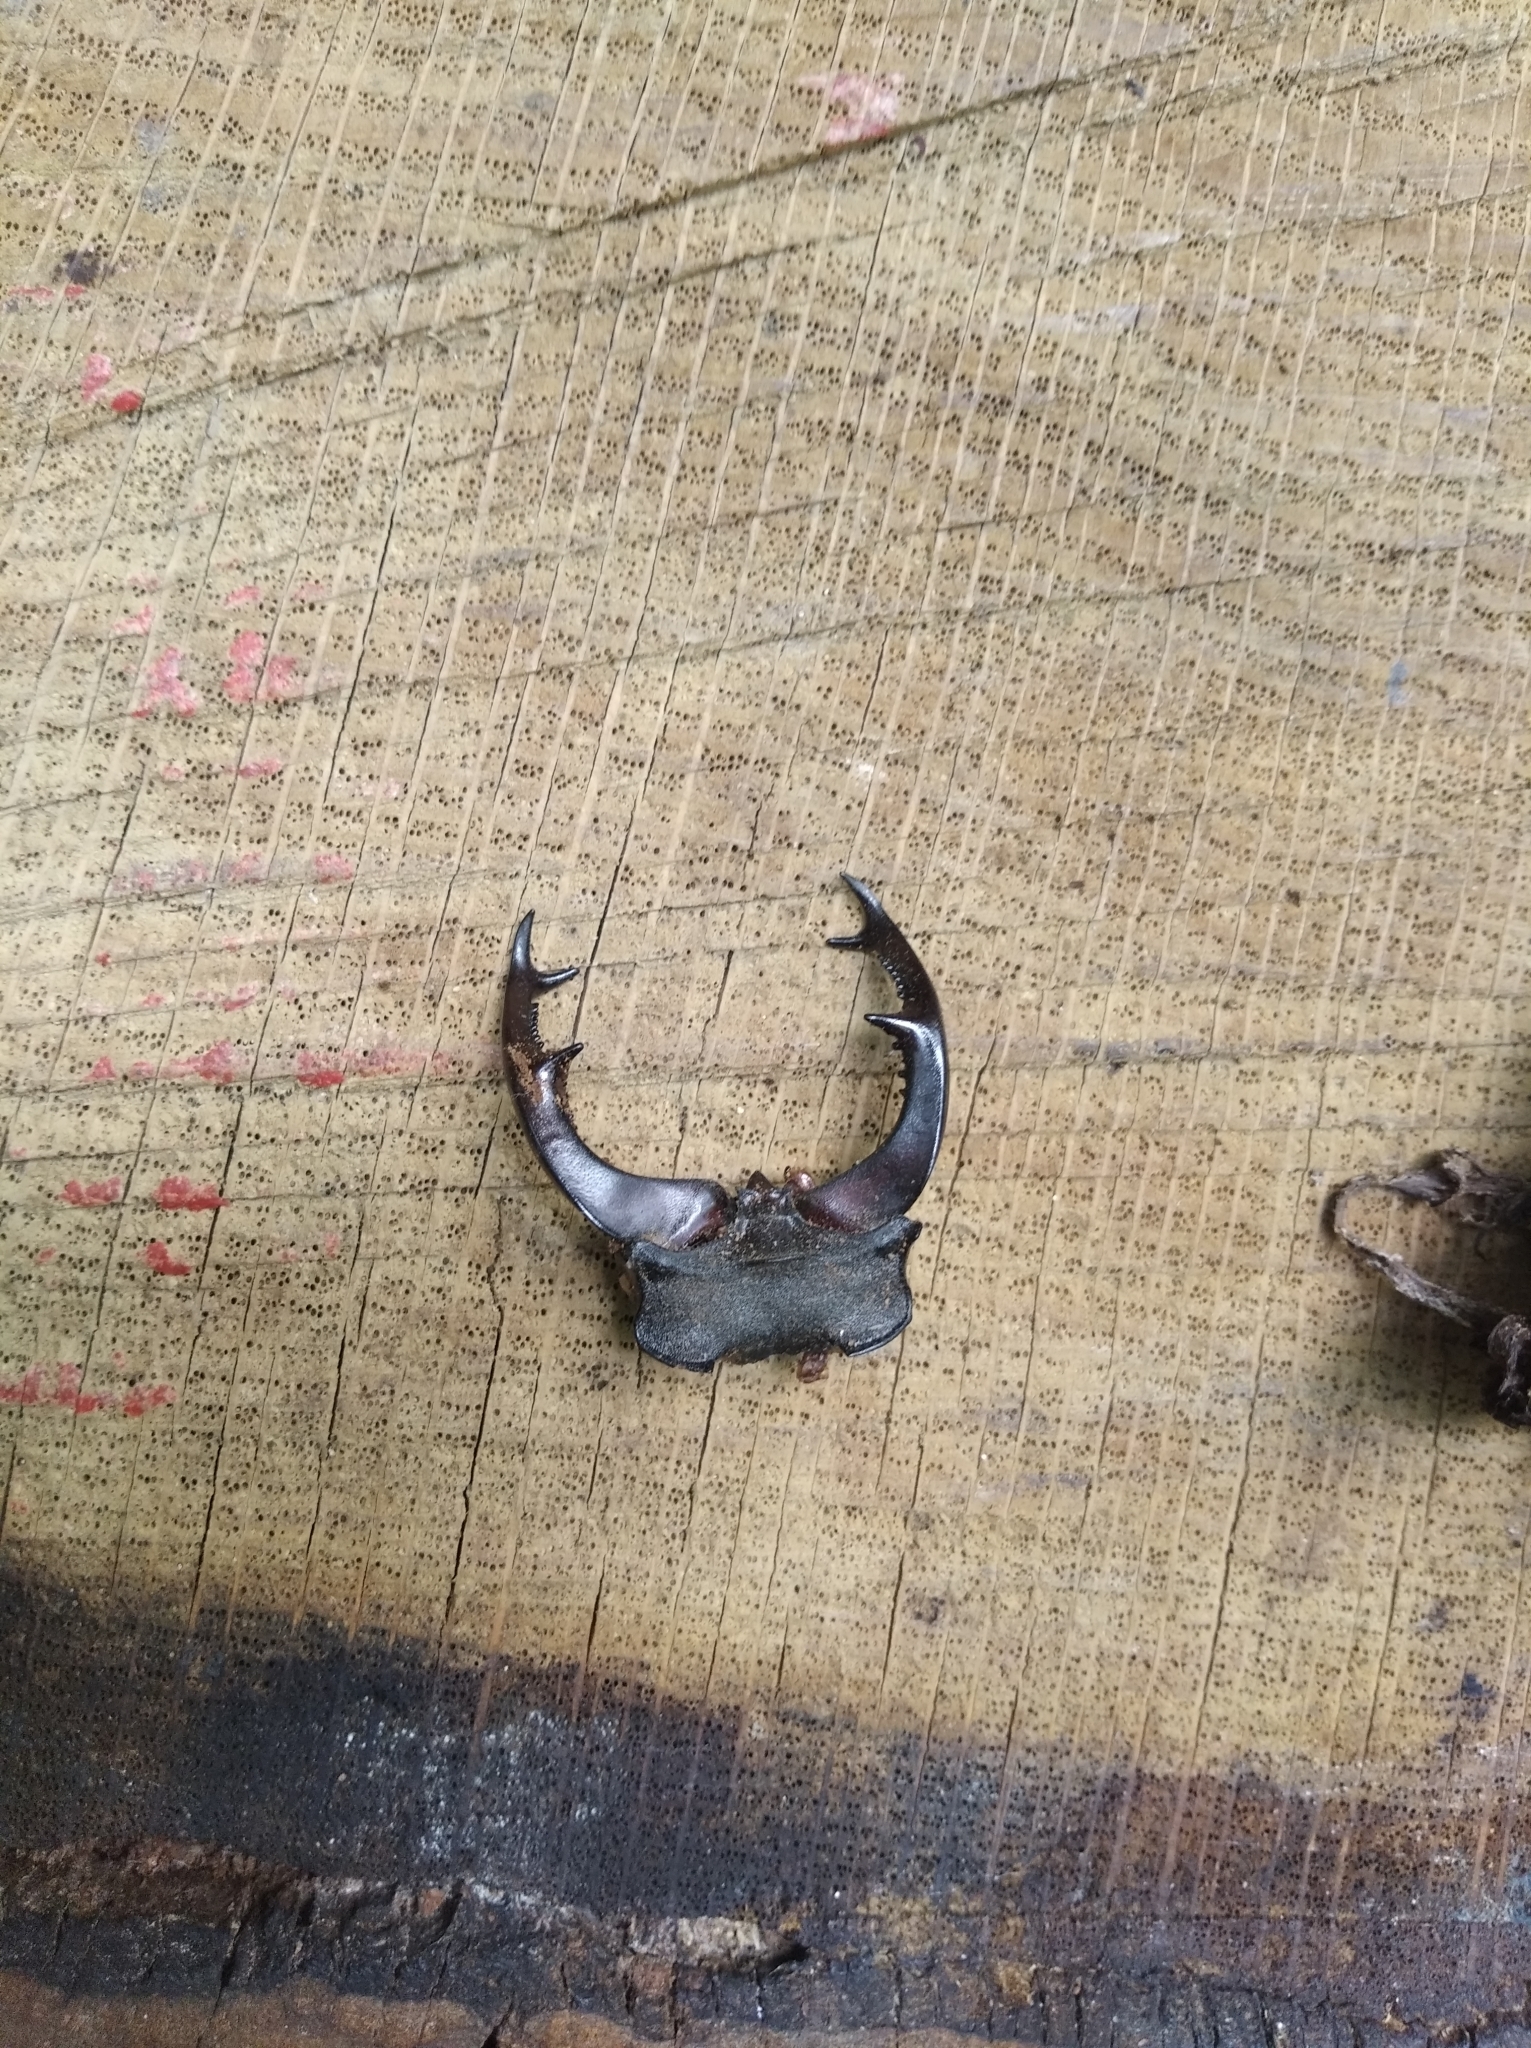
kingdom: Animalia
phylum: Arthropoda
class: Insecta
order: Coleoptera
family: Lucanidae
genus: Lucanus
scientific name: Lucanus cervus
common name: Stag beetle
